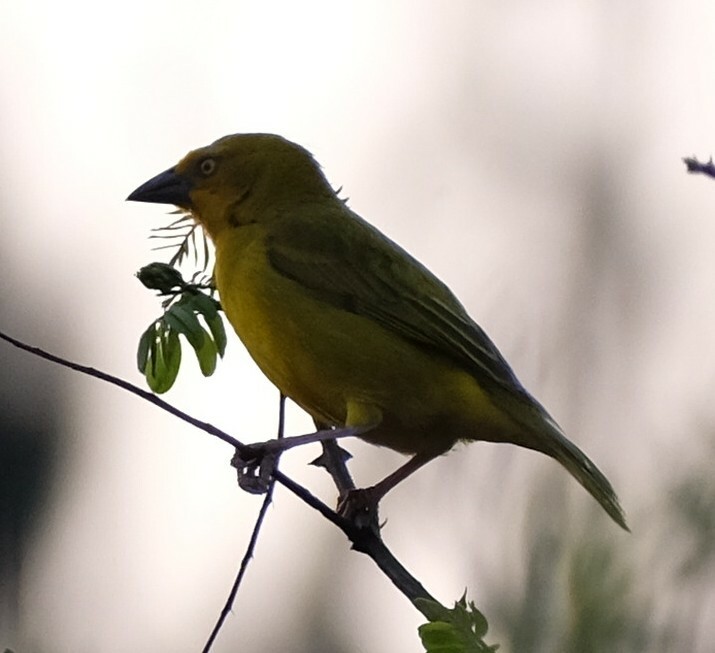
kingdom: Animalia
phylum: Chordata
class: Aves
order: Passeriformes
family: Ploceidae
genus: Ploceus
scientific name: Ploceus xanthops
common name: Holub's golden weaver
